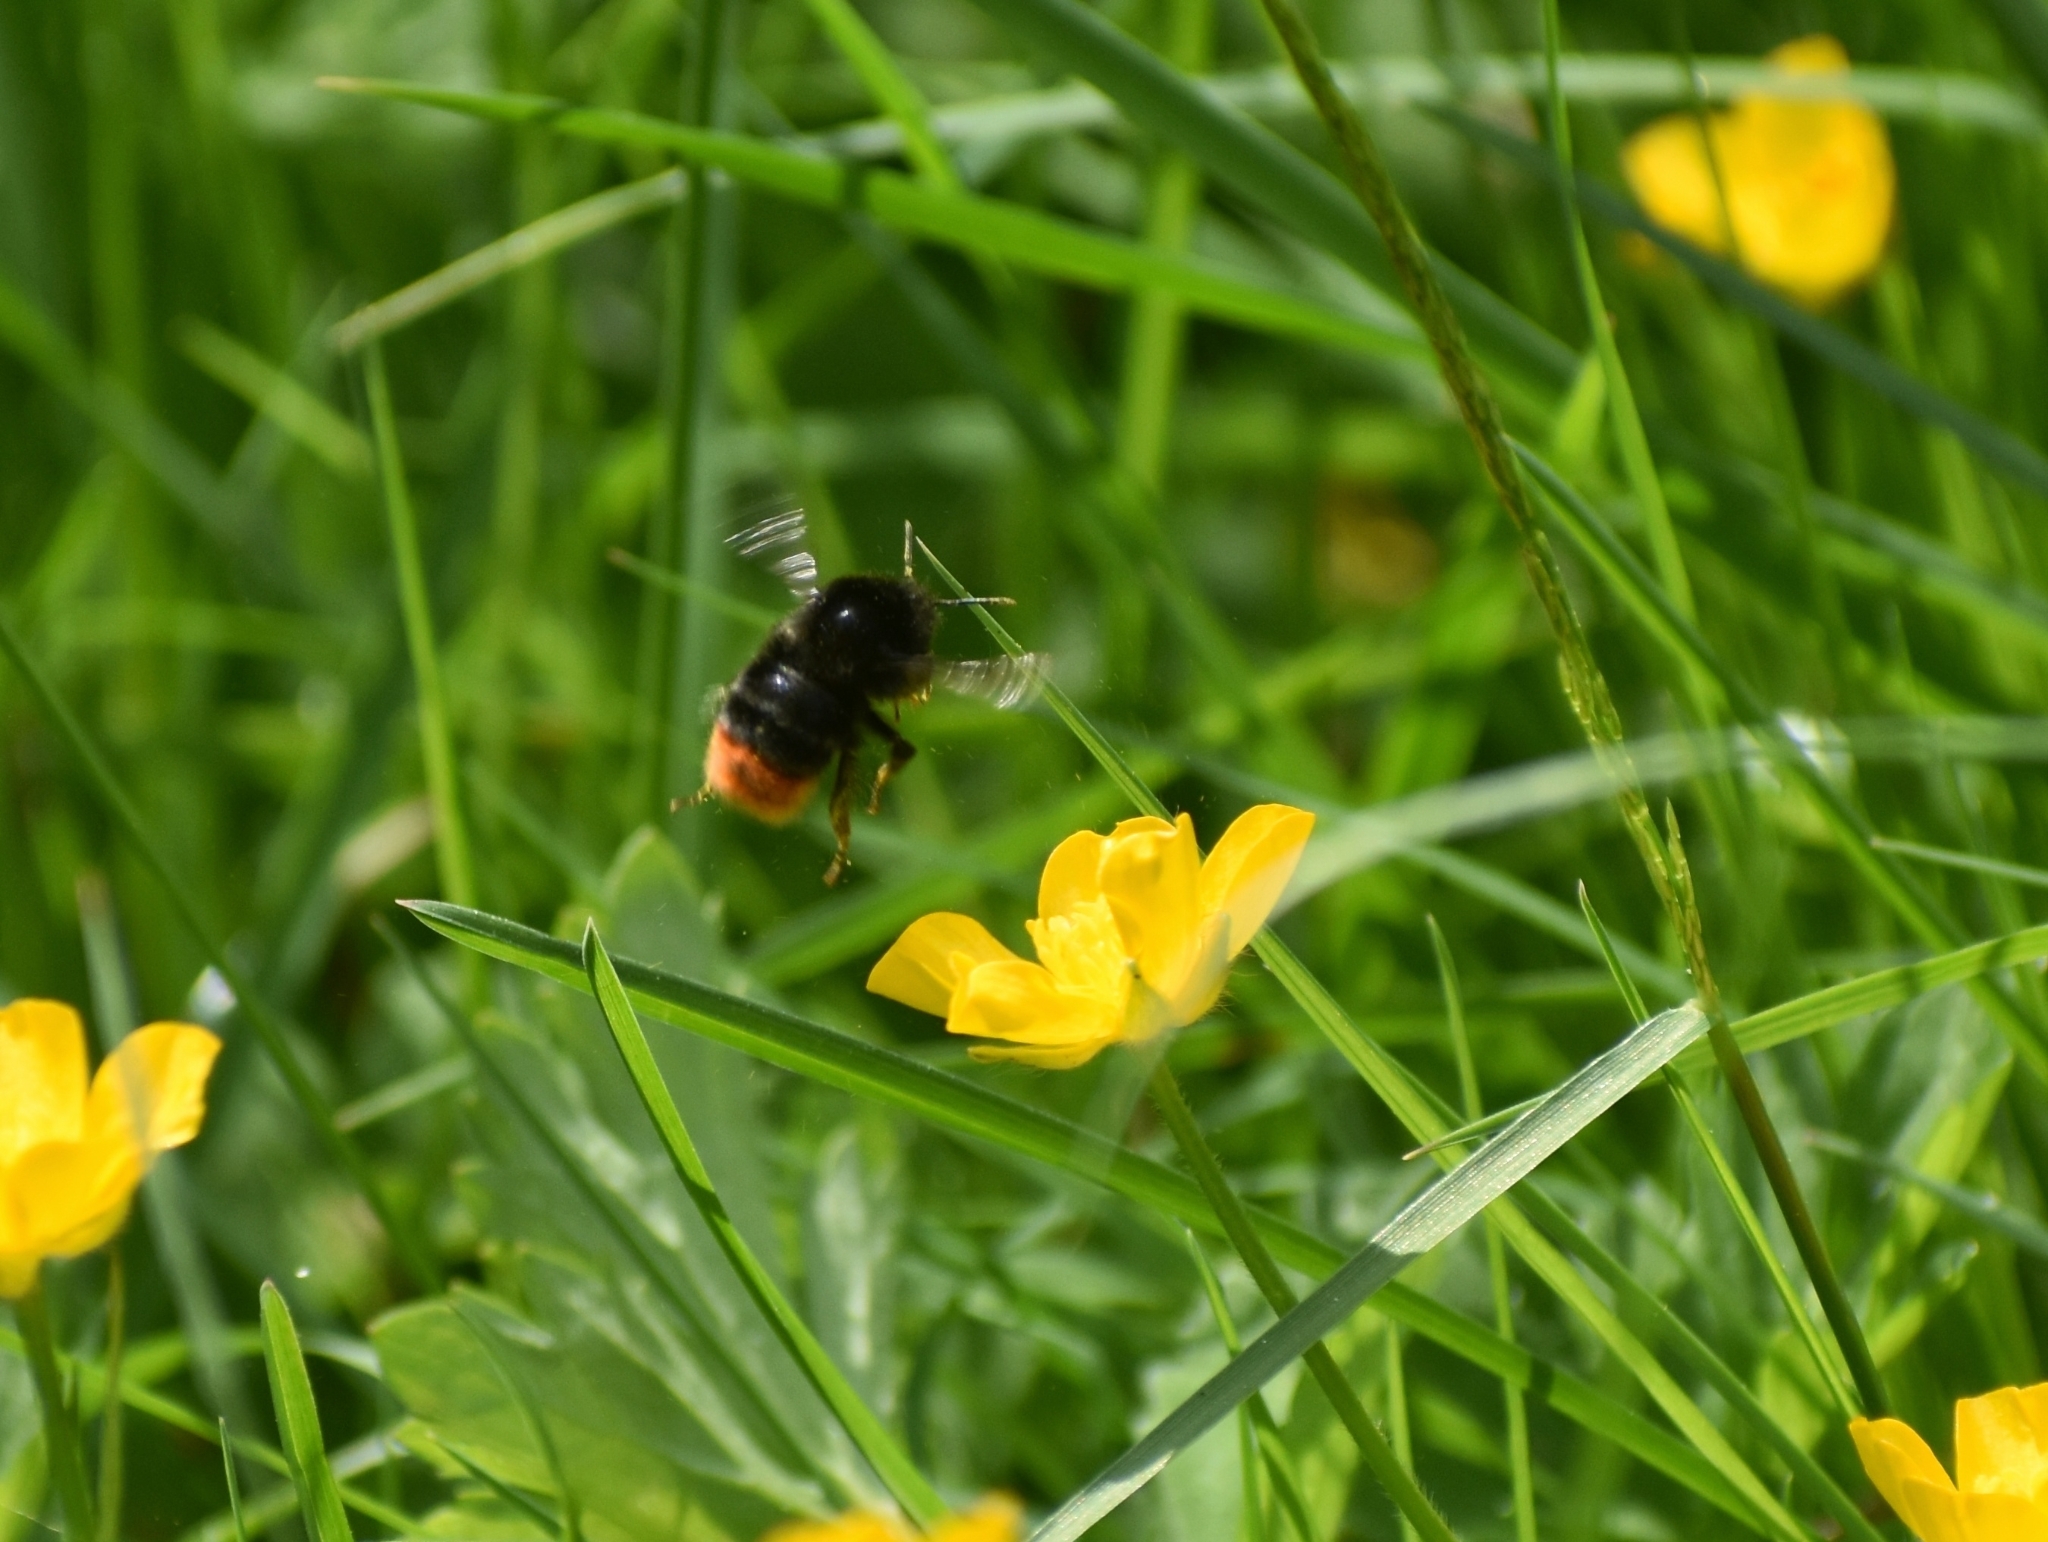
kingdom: Animalia
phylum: Arthropoda
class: Insecta
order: Hymenoptera
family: Apidae
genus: Bombus
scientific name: Bombus lapidarius
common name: Large red-tailed humble-bee
